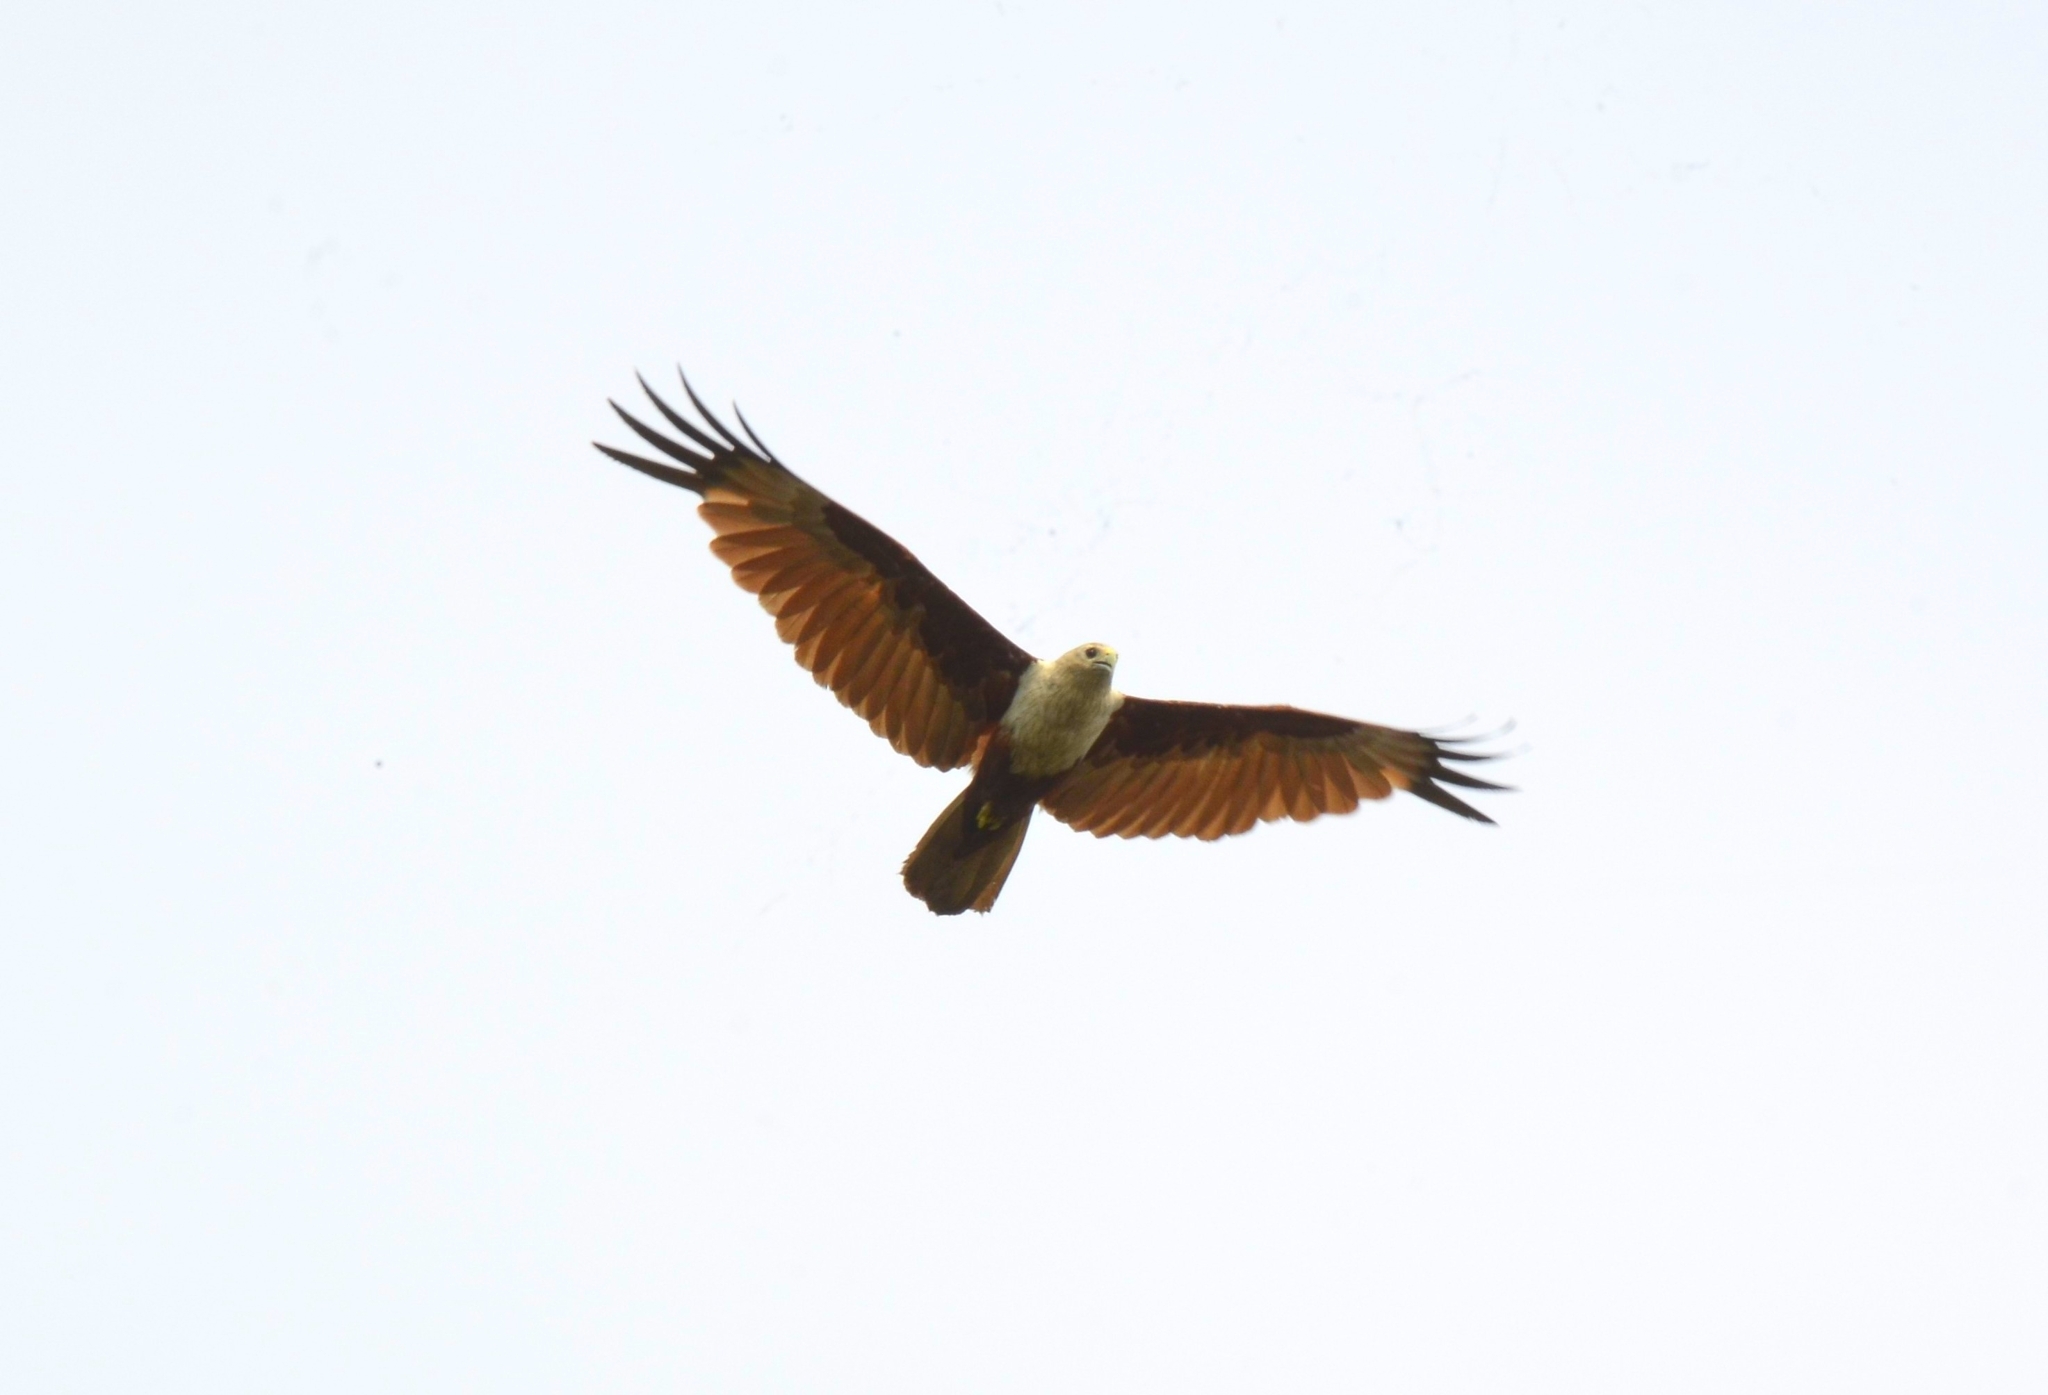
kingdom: Animalia
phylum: Chordata
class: Aves
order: Accipitriformes
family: Accipitridae
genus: Haliastur
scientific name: Haliastur indus
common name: Brahminy kite
